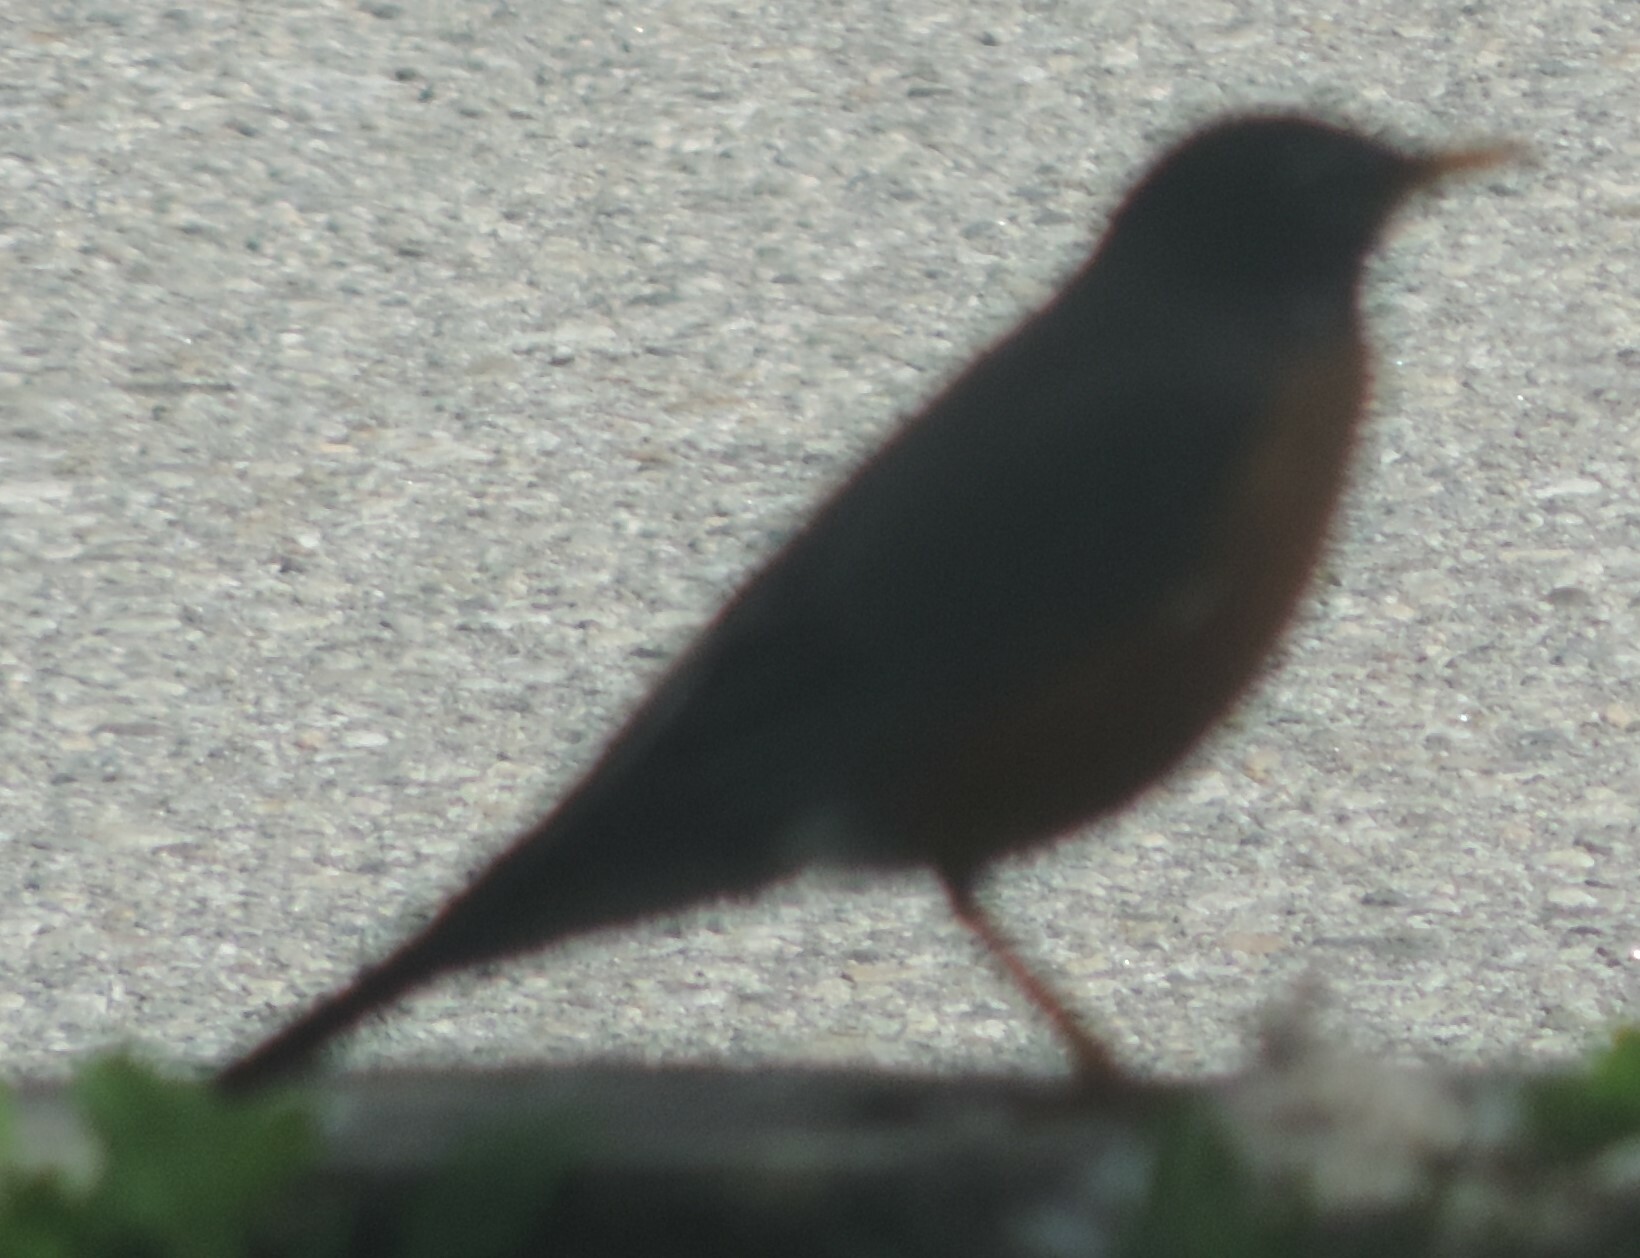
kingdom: Animalia
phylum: Chordata
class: Aves
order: Passeriformes
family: Turdidae
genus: Turdus
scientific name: Turdus migratorius
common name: American robin
